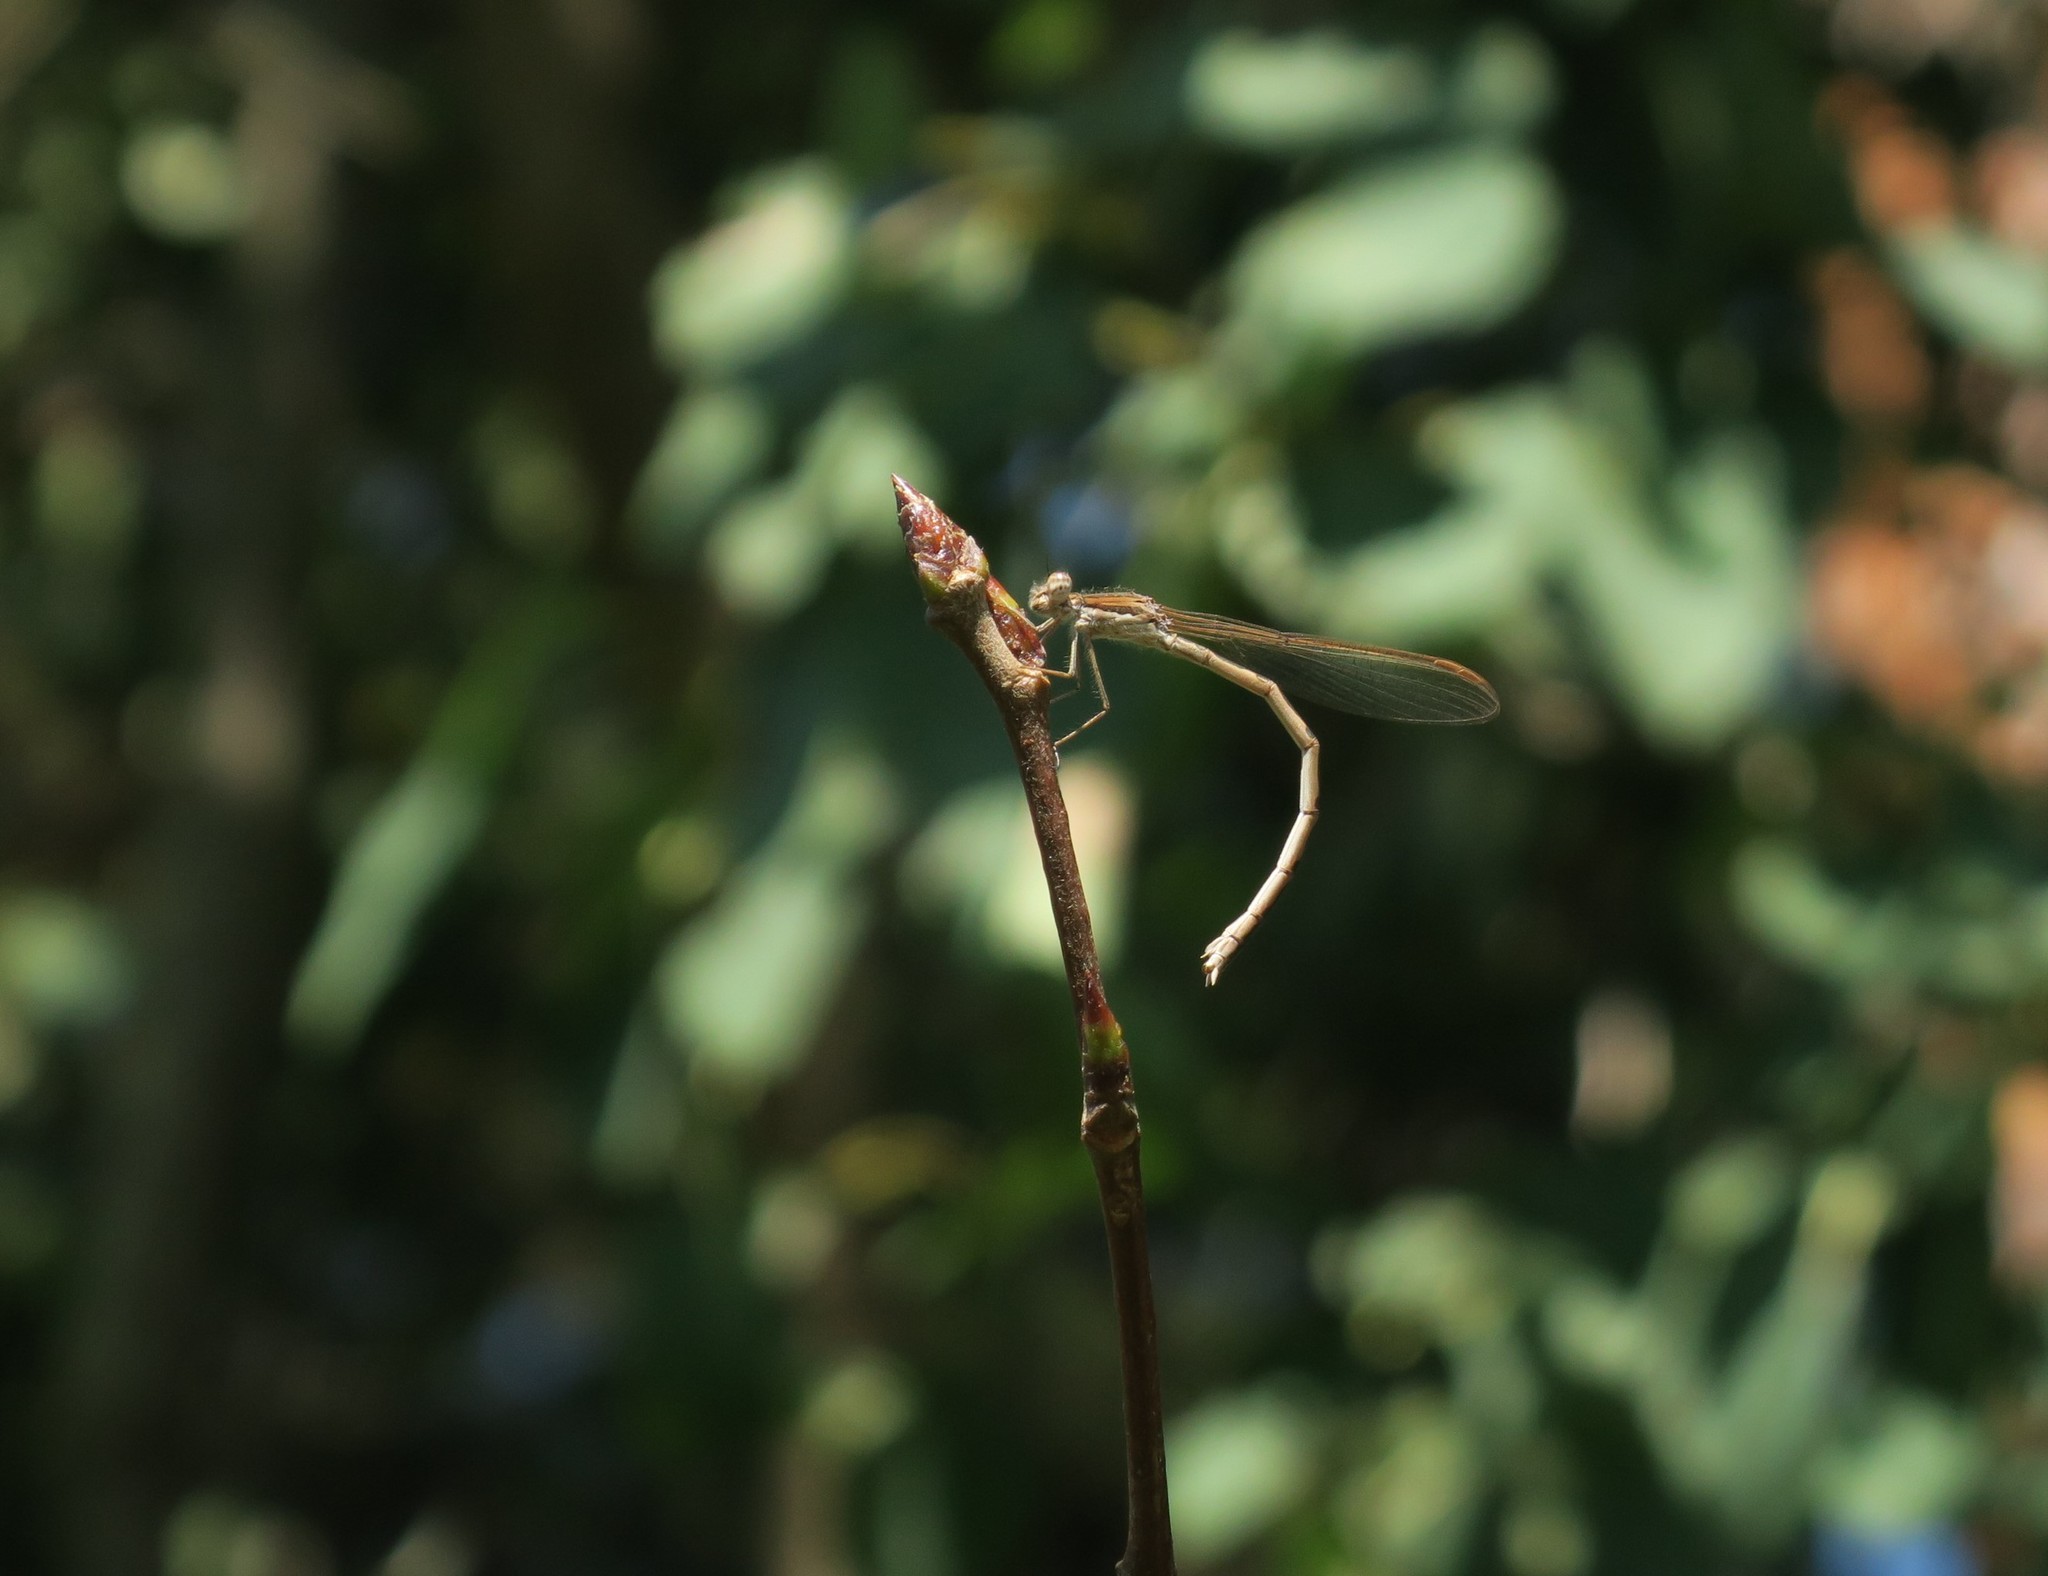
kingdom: Animalia
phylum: Arthropoda
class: Insecta
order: Odonata
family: Lestidae
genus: Sympecma
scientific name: Sympecma fusca
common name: Common winter damsel
